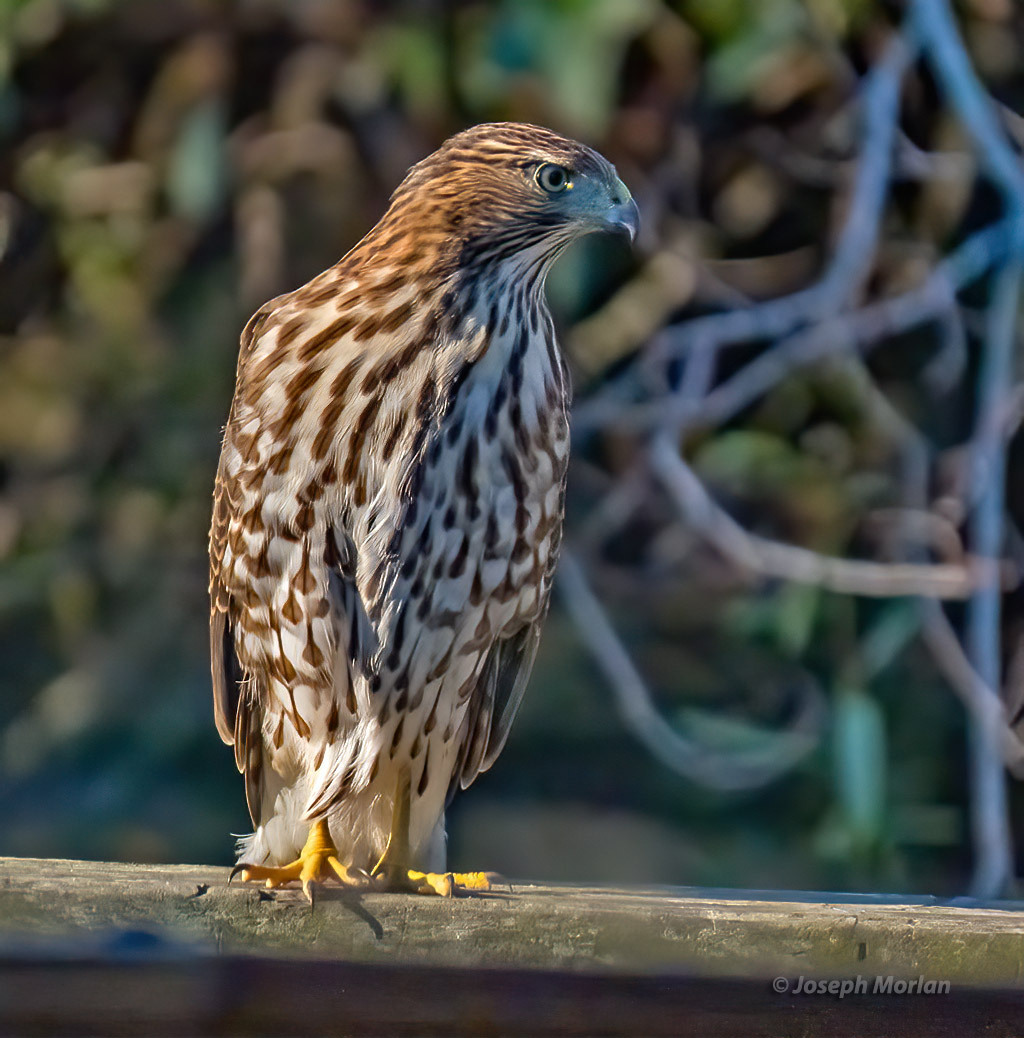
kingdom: Animalia
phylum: Chordata
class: Aves
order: Accipitriformes
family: Accipitridae
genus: Accipiter
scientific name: Accipiter cooperii
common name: Cooper's hawk
